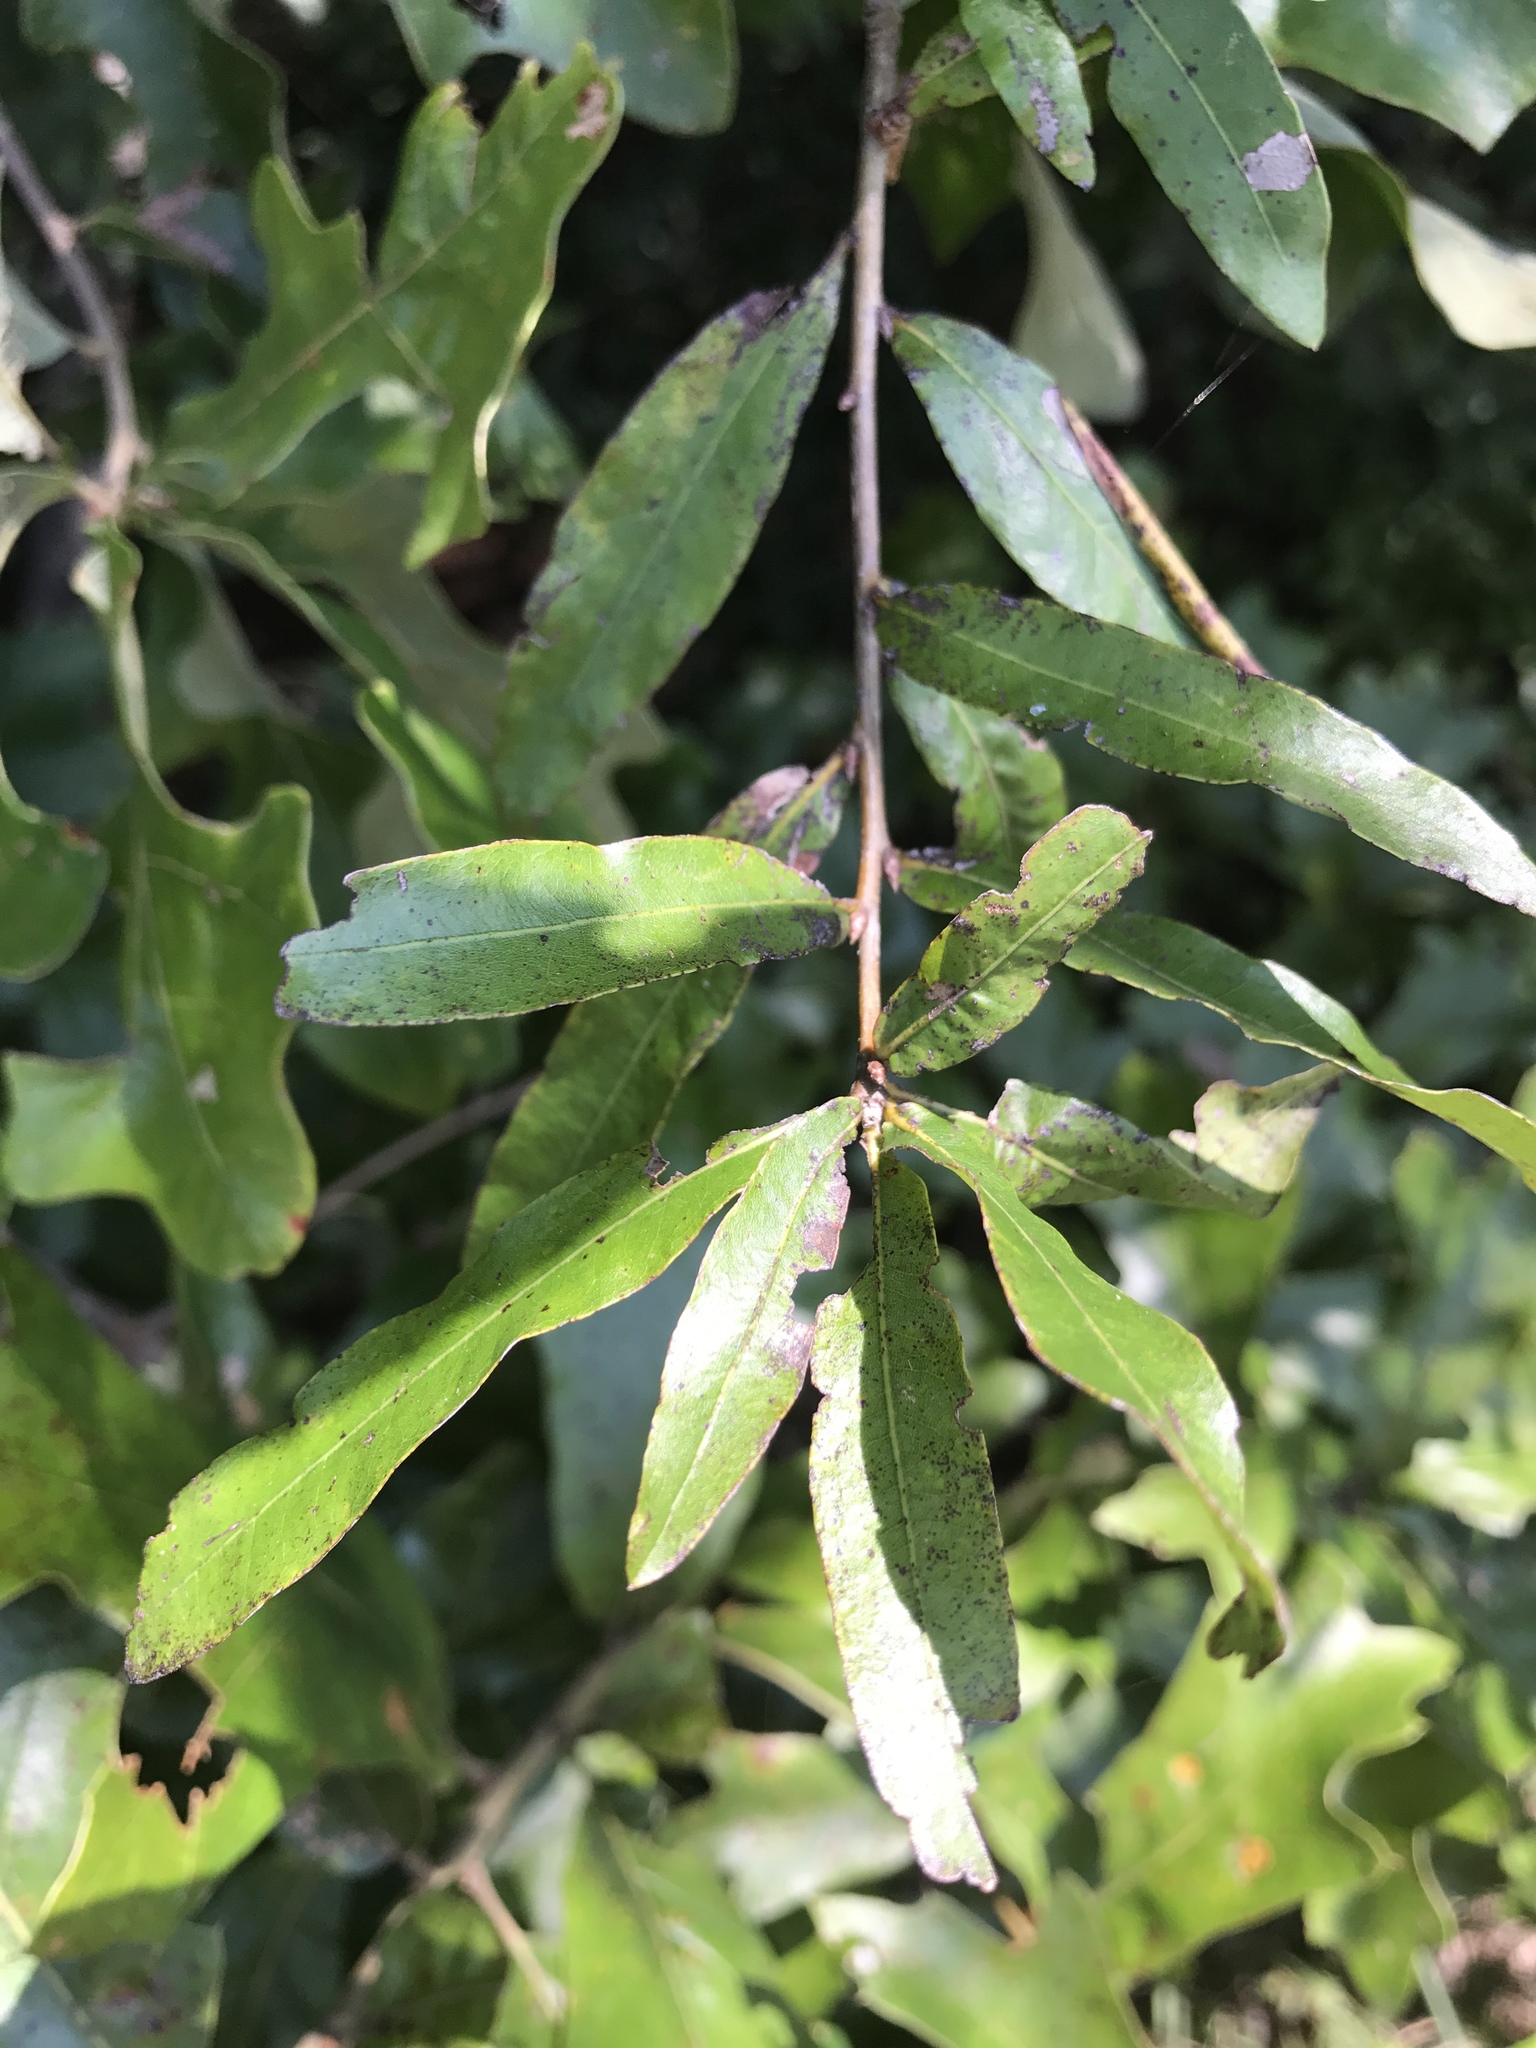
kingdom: Plantae
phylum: Tracheophyta
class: Magnoliopsida
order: Fagales
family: Fagaceae
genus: Quercus
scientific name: Quercus phellos
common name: Willow oak
